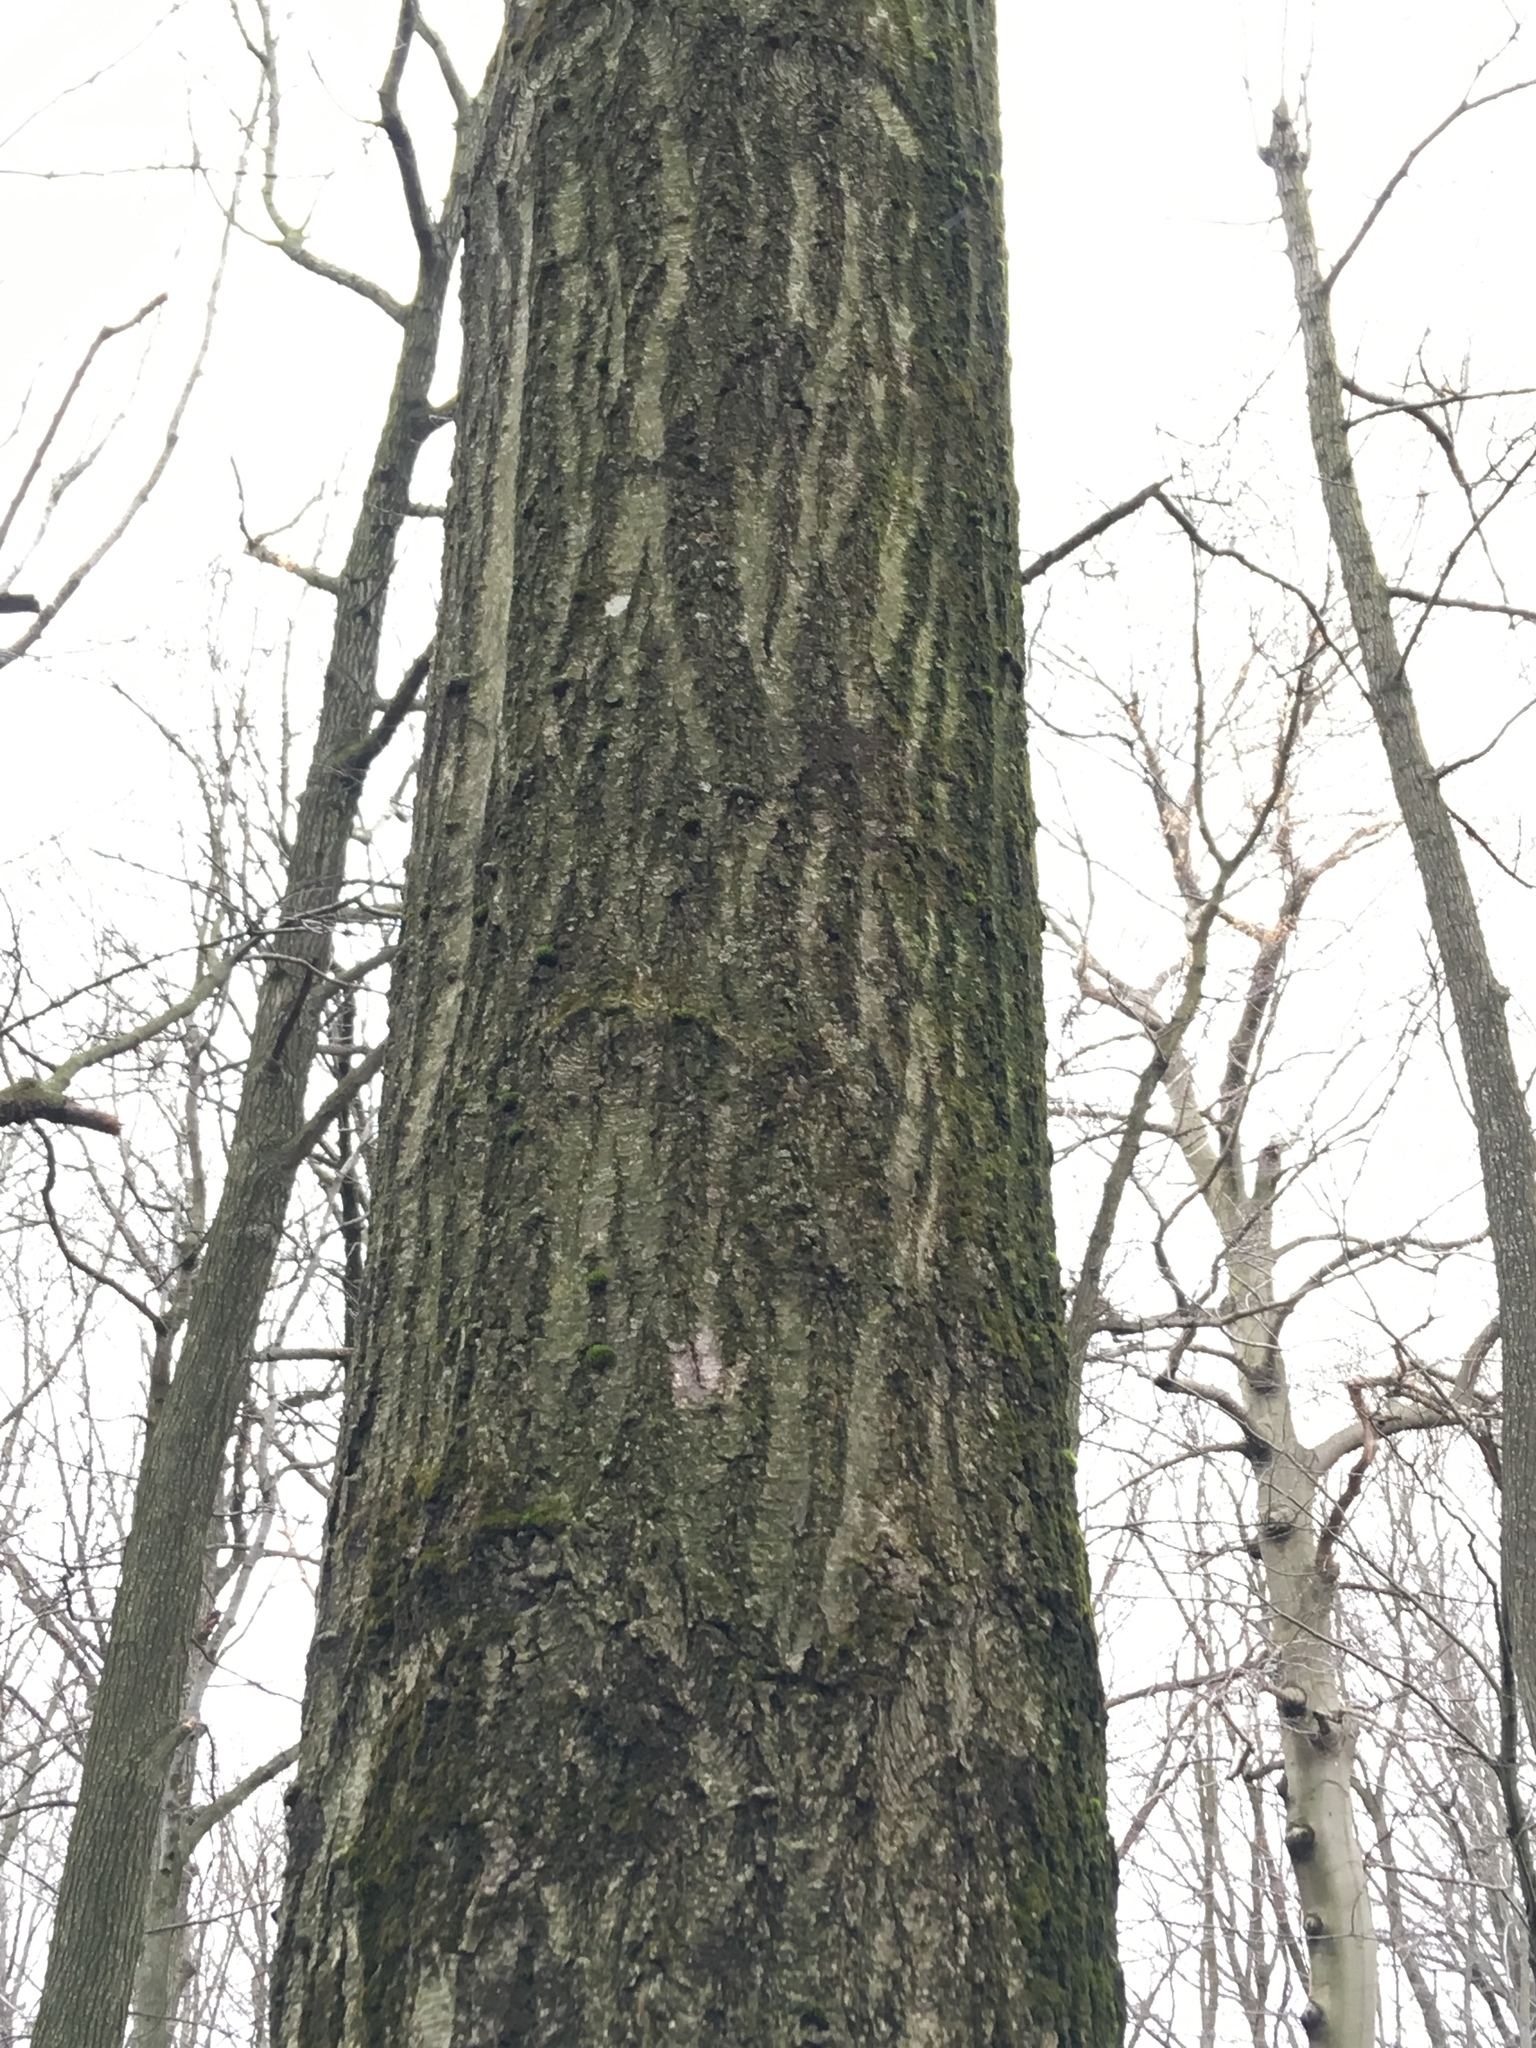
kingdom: Plantae
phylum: Tracheophyta
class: Magnoliopsida
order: Fagales
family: Fagaceae
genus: Quercus
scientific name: Quercus rubra
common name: Red oak
